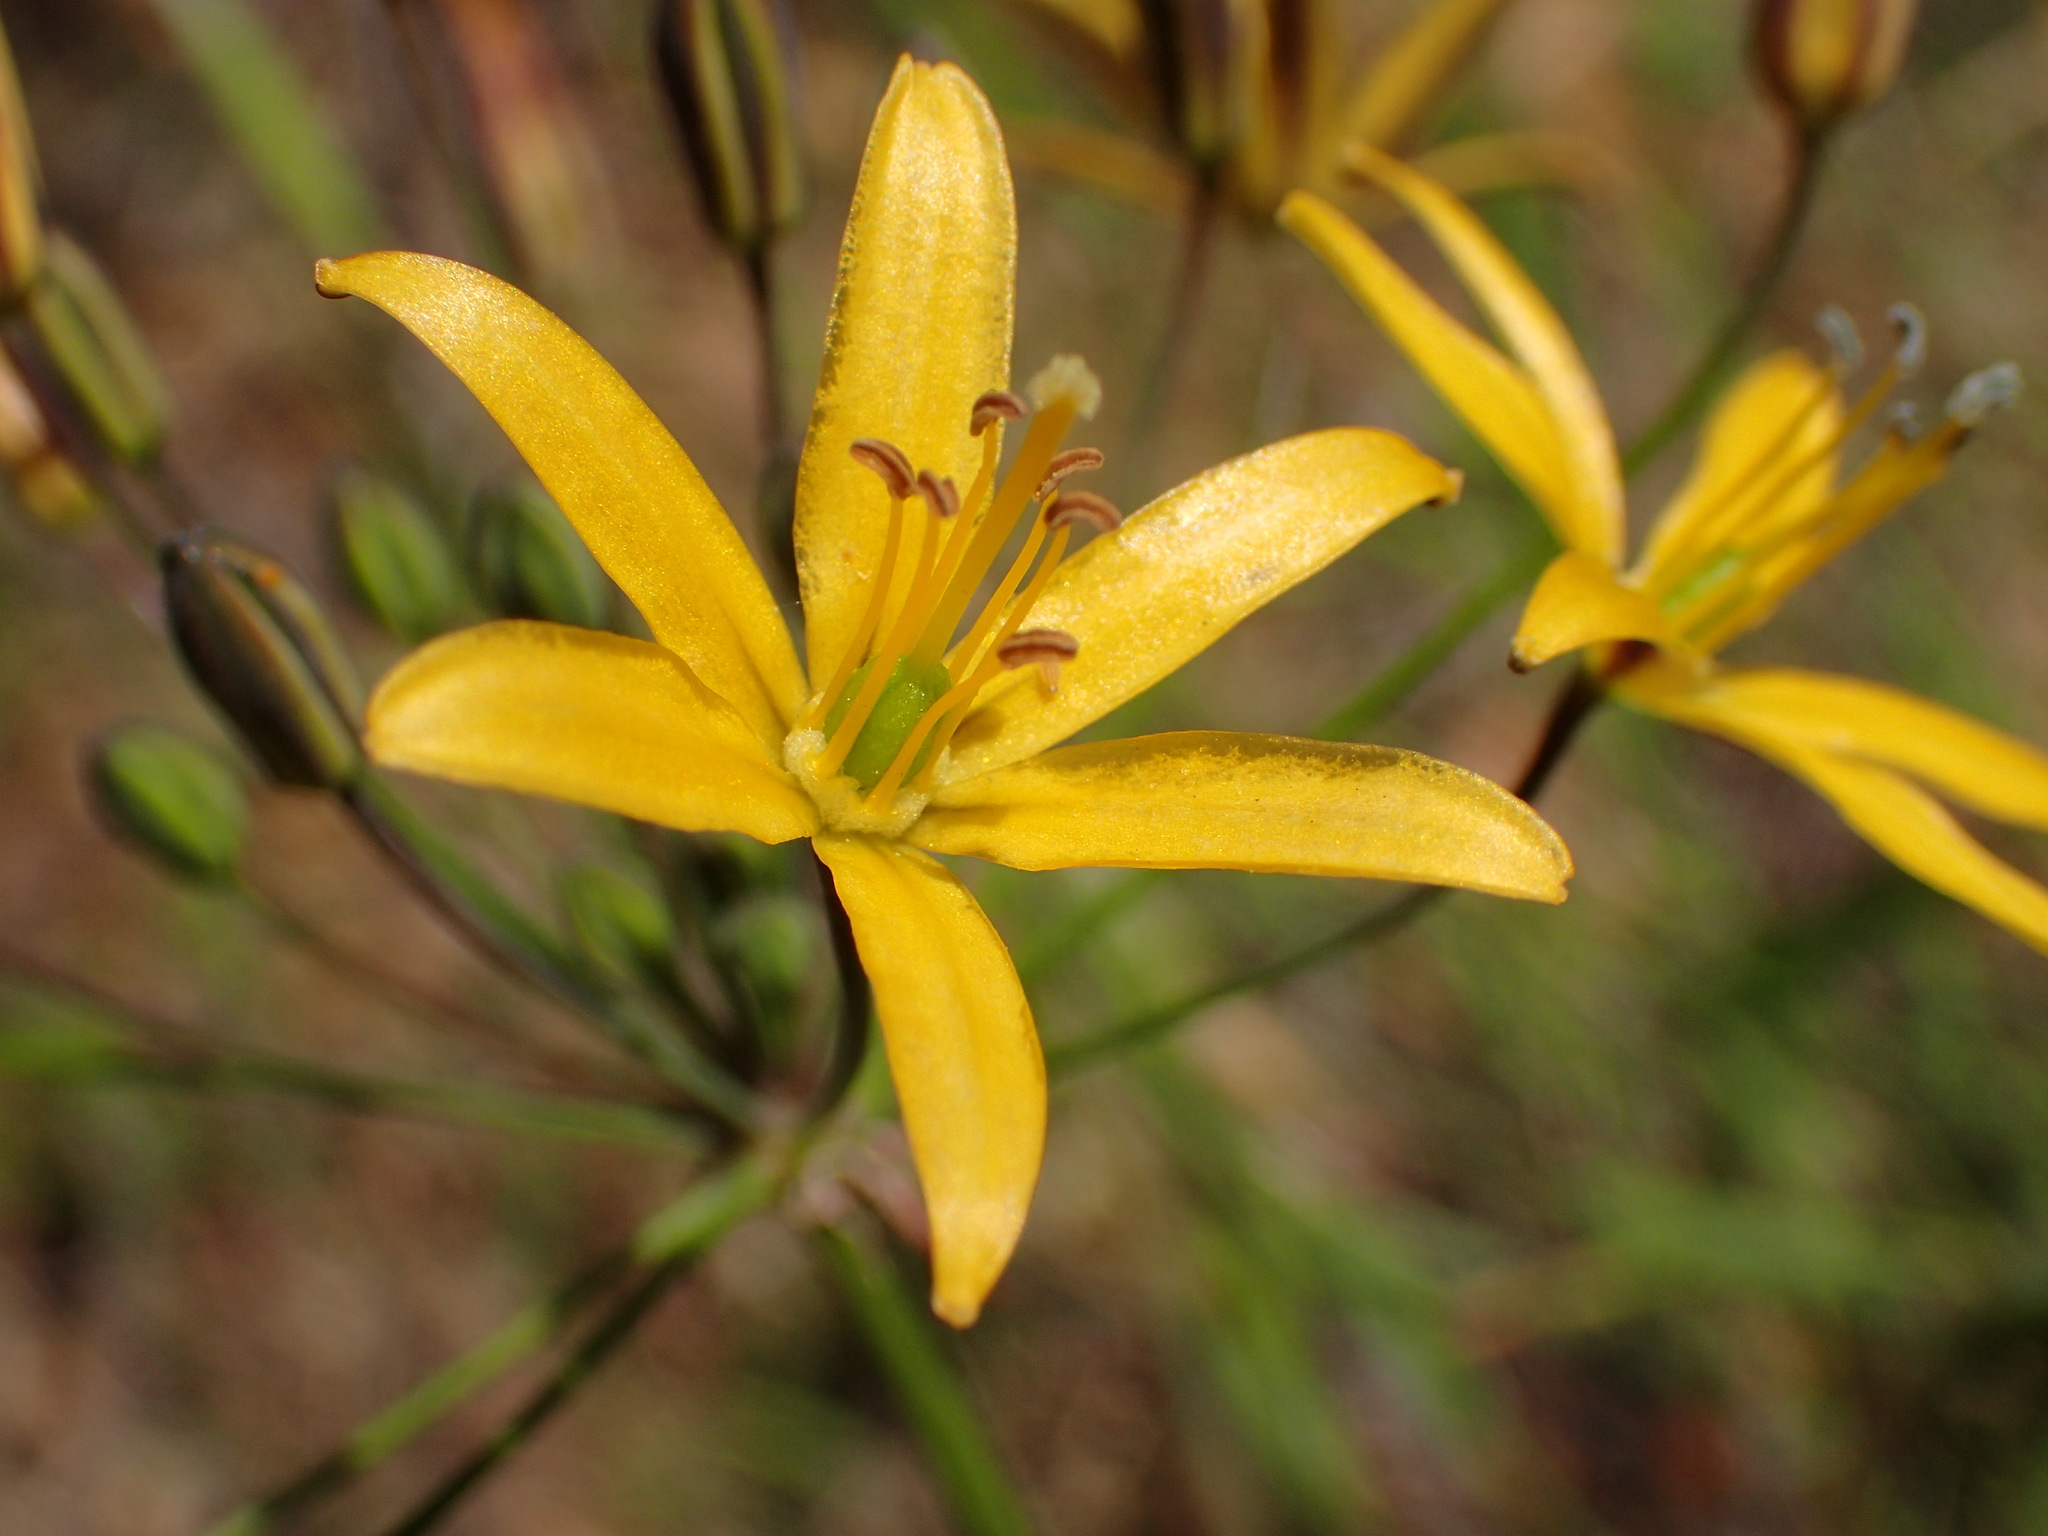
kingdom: Plantae
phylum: Tracheophyta
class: Liliopsida
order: Asparagales
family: Asparagaceae
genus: Bloomeria
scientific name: Bloomeria crocea
